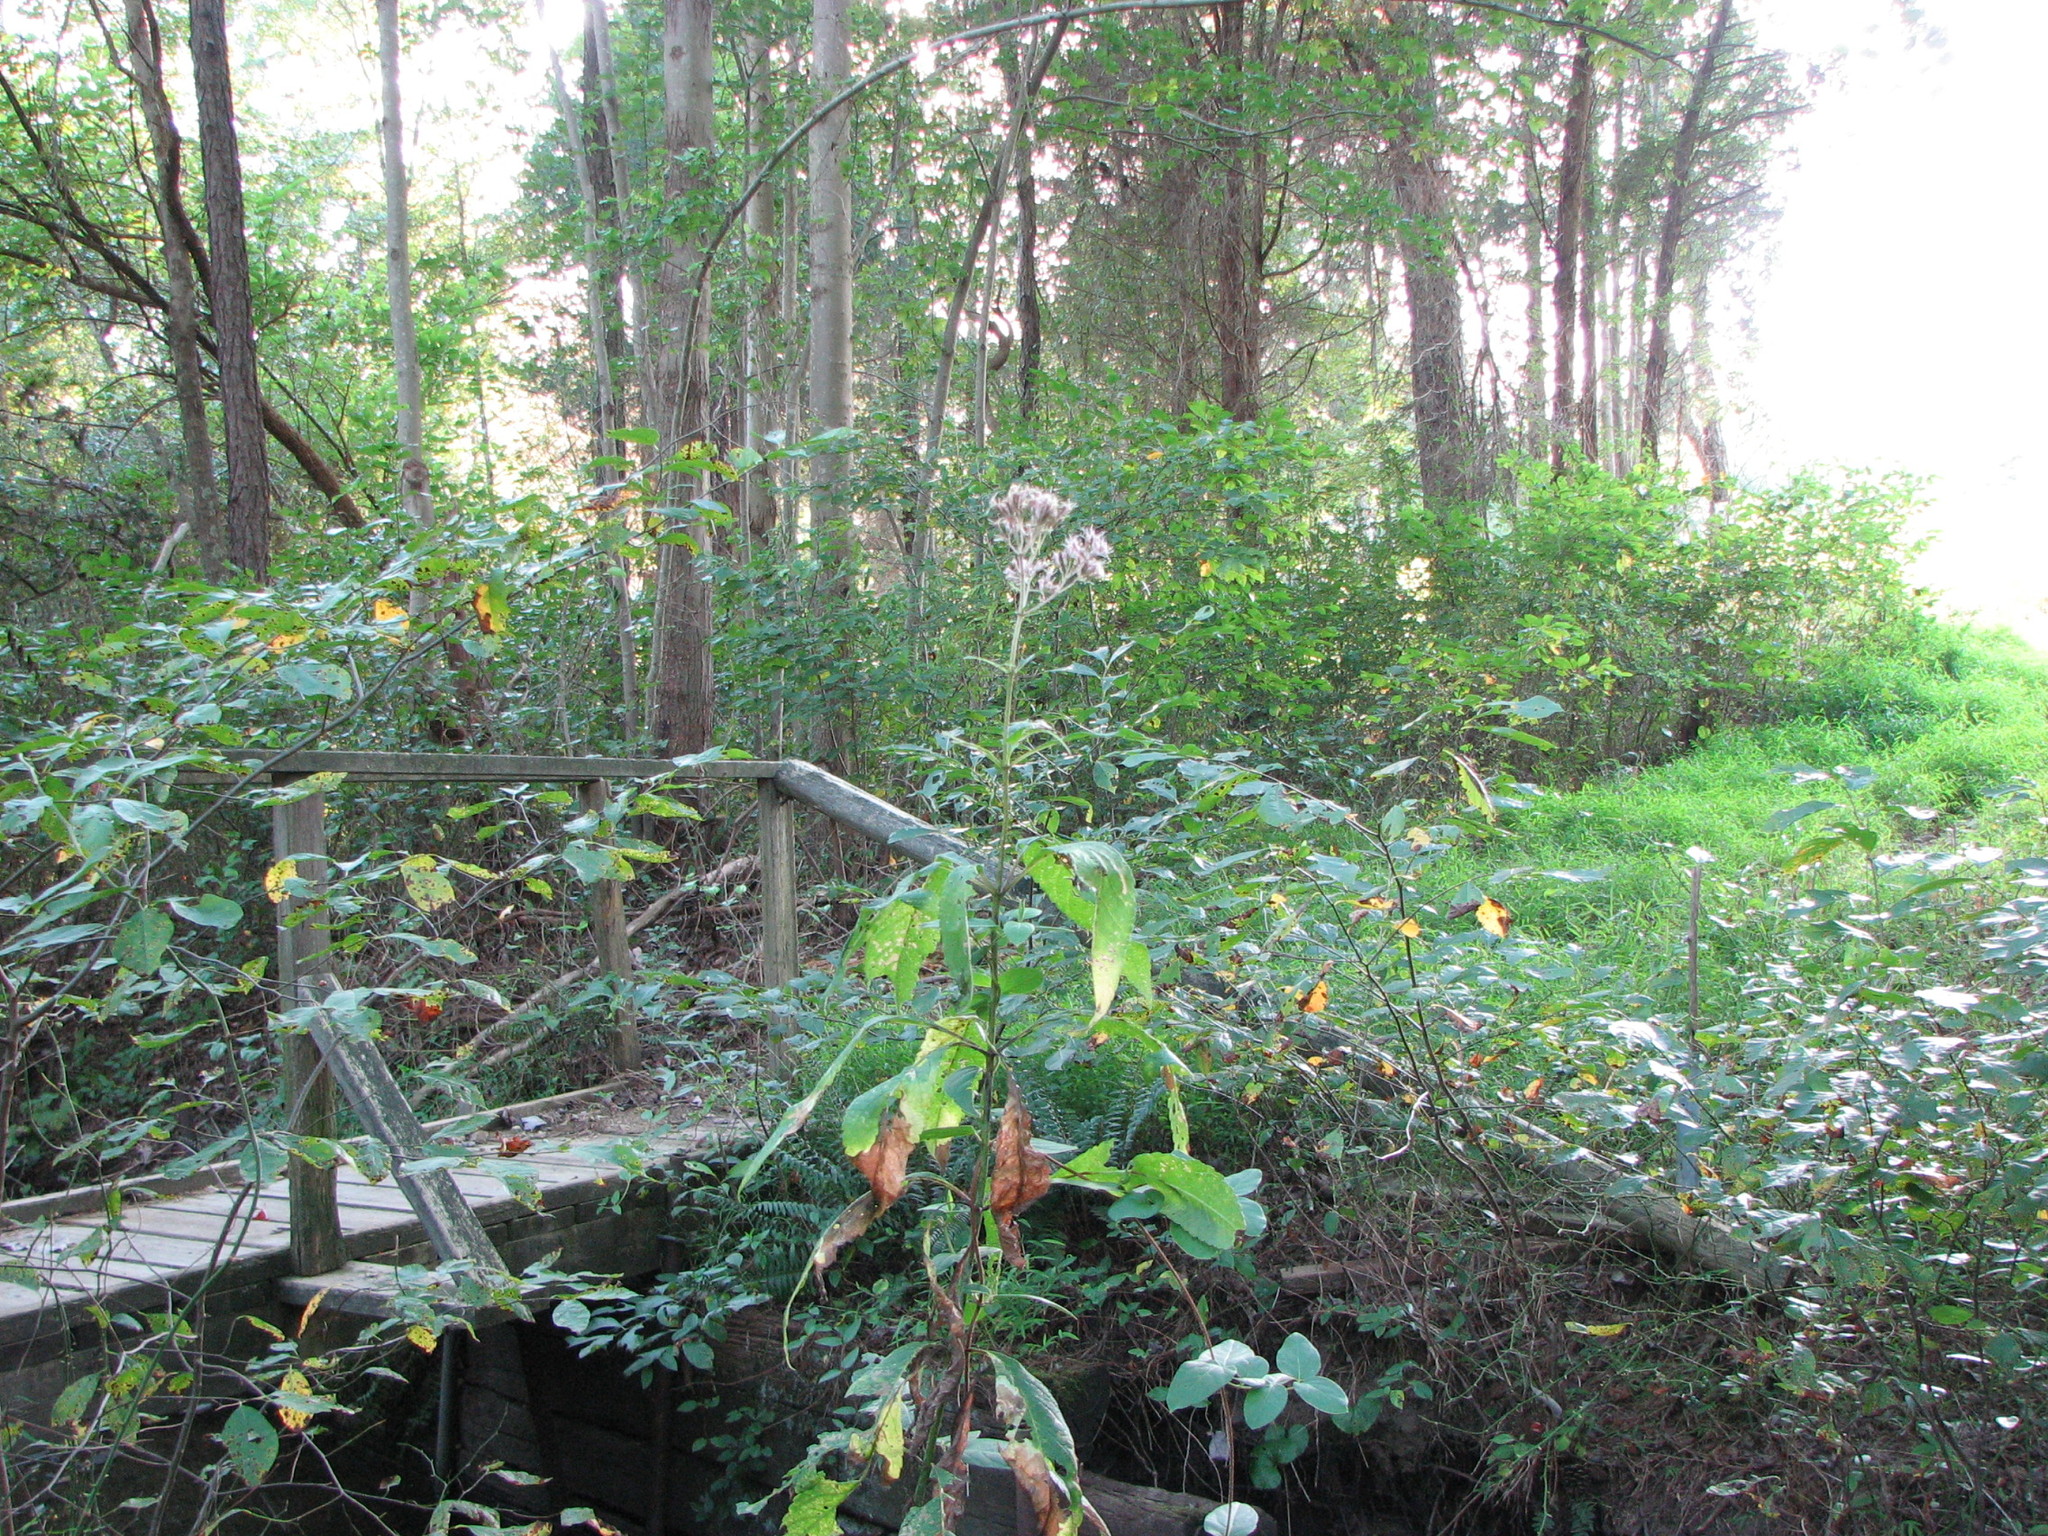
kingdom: Plantae
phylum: Tracheophyta
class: Magnoliopsida
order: Asterales
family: Asteraceae
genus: Eutrochium
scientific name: Eutrochium purpureum
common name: Gravelroot
